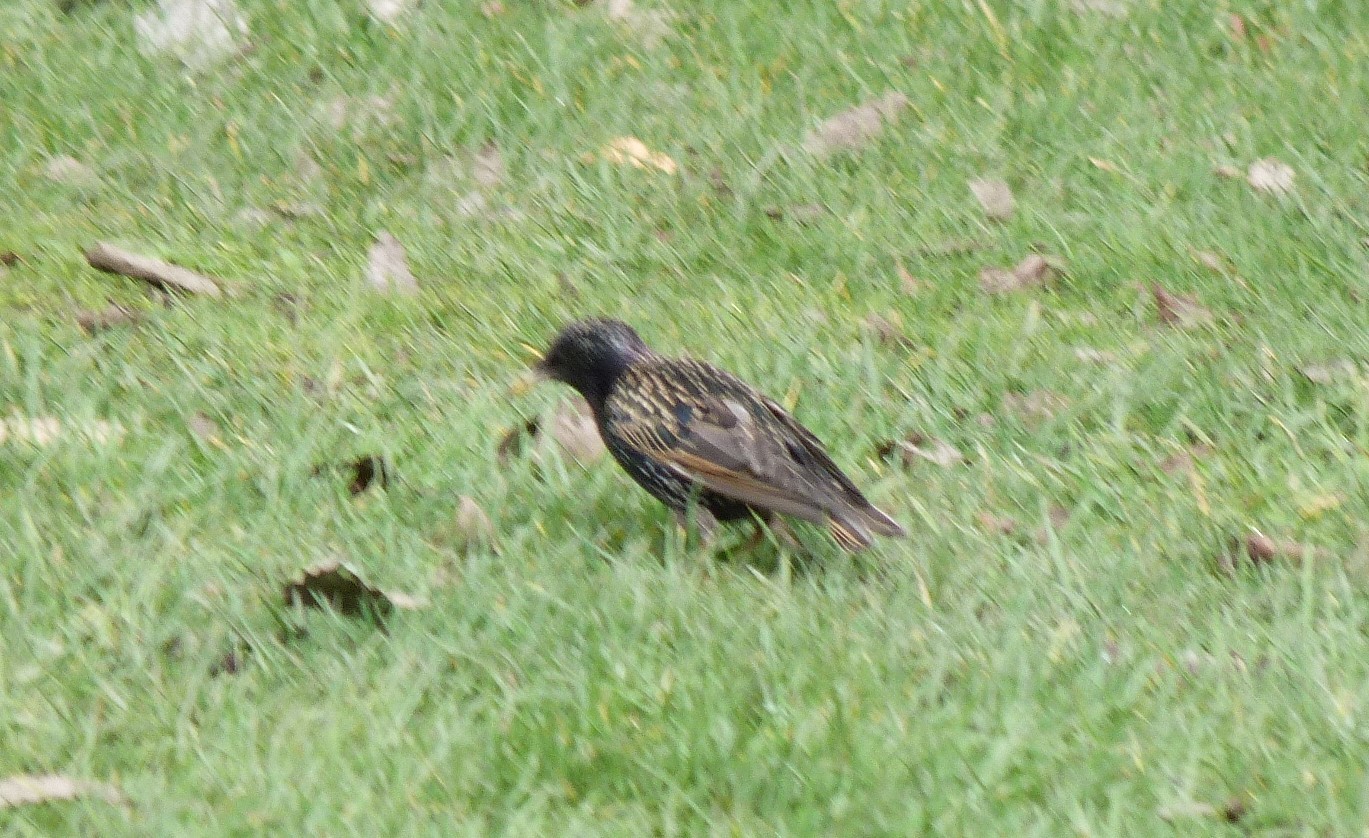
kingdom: Animalia
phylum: Chordata
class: Aves
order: Passeriformes
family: Sturnidae
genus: Sturnus
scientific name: Sturnus vulgaris
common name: Common starling
